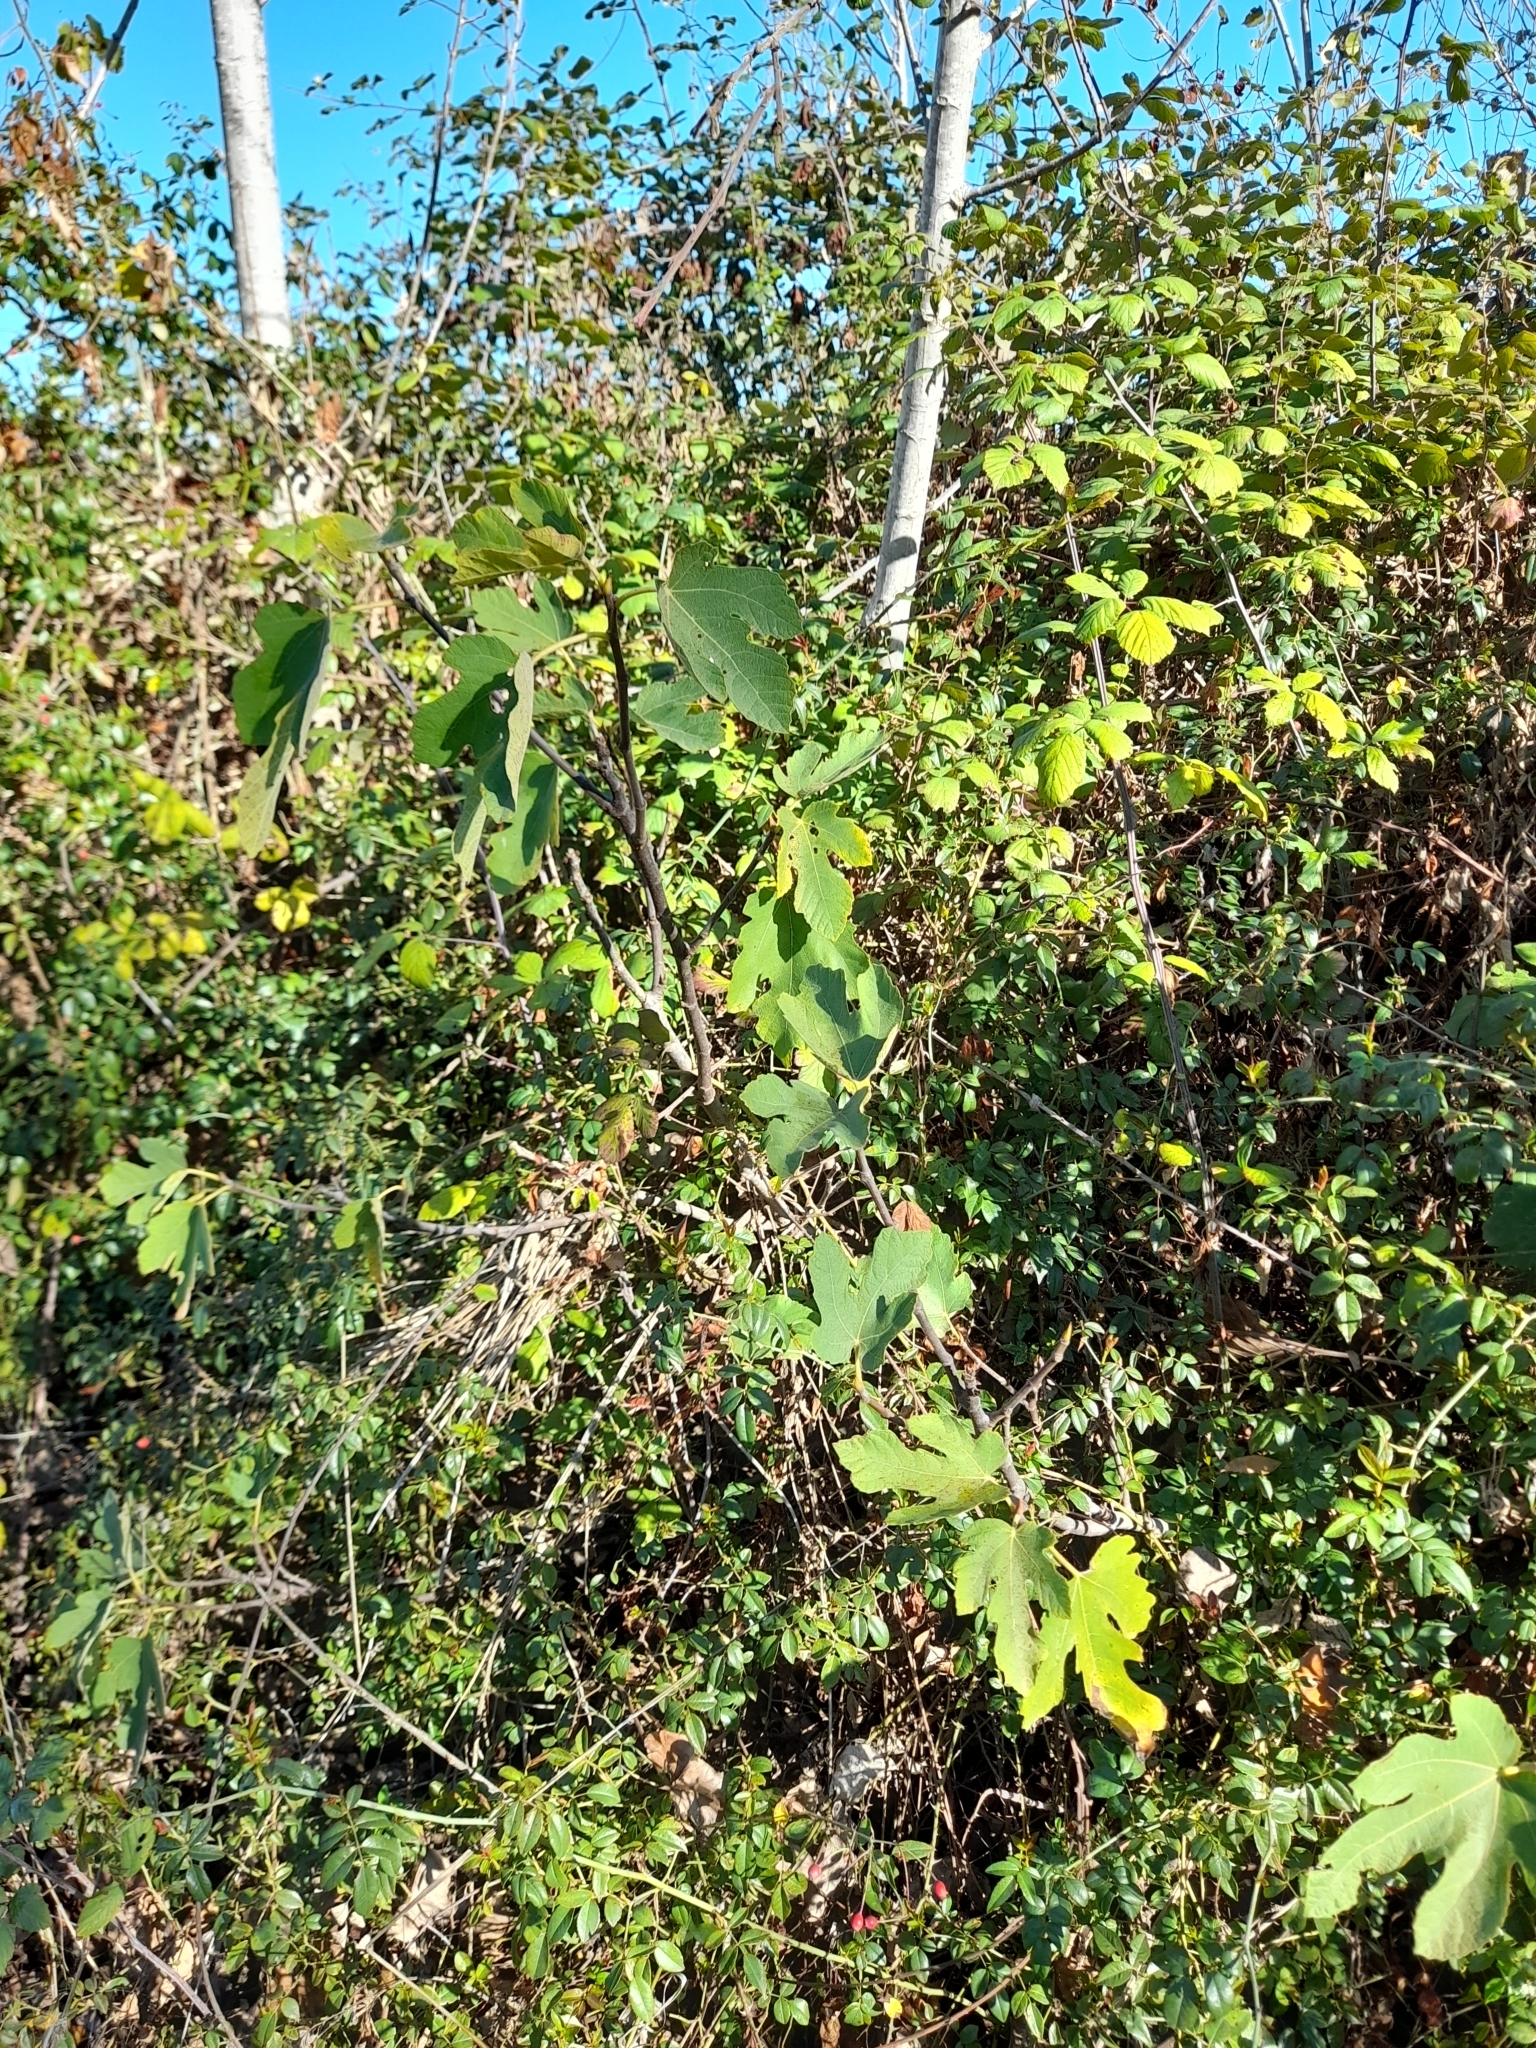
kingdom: Plantae
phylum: Tracheophyta
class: Magnoliopsida
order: Rosales
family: Moraceae
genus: Ficus
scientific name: Ficus carica
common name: Fig
